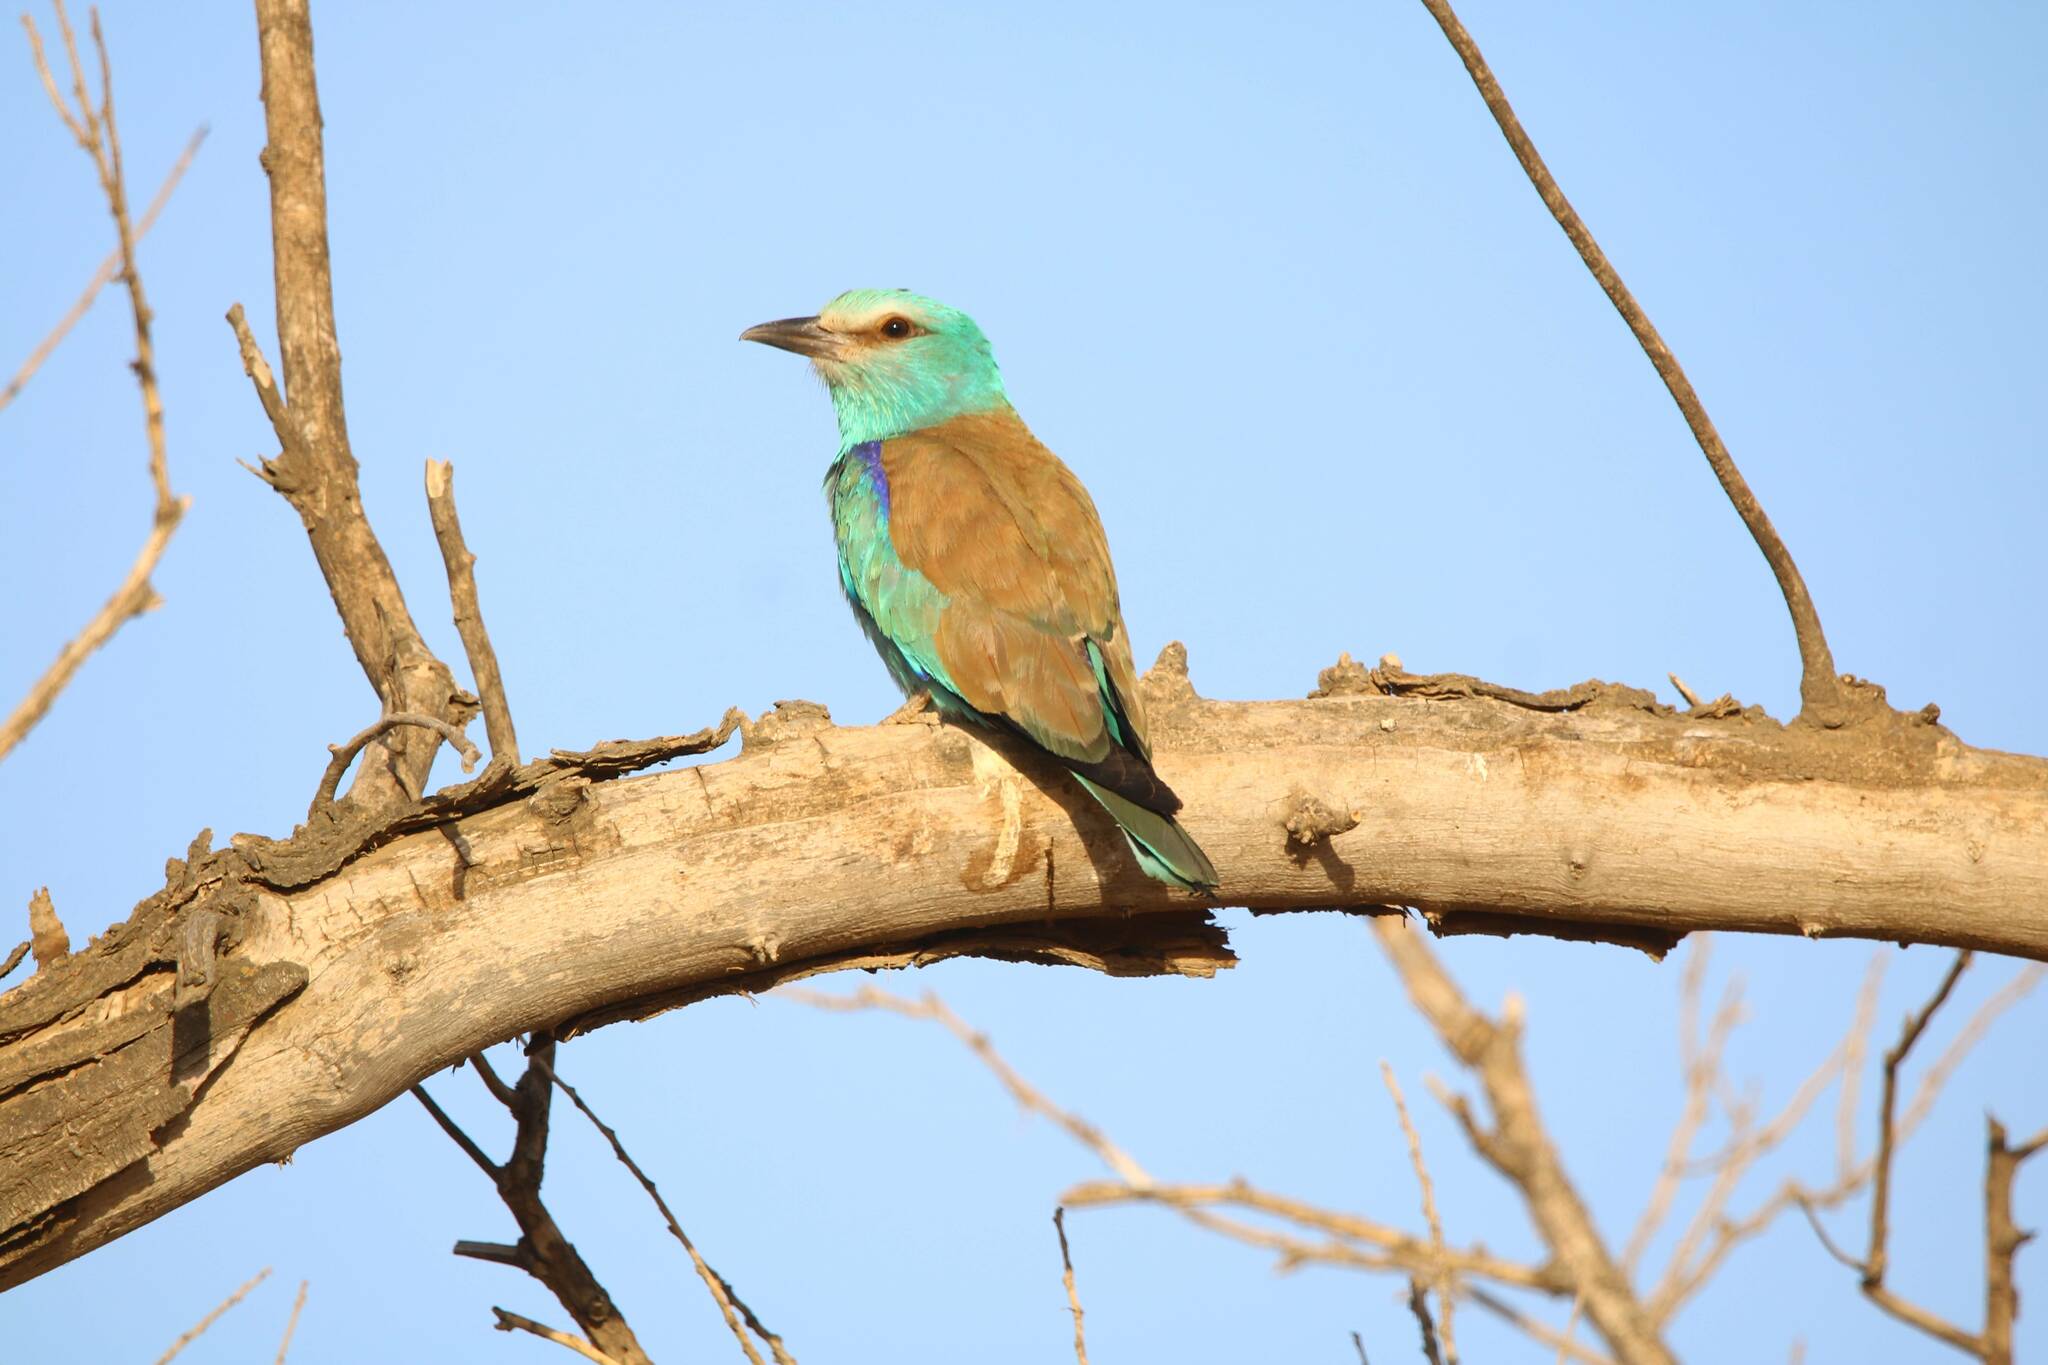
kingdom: Animalia
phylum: Chordata
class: Aves
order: Coraciiformes
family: Coraciidae
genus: Coracias
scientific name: Coracias garrulus
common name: European roller
